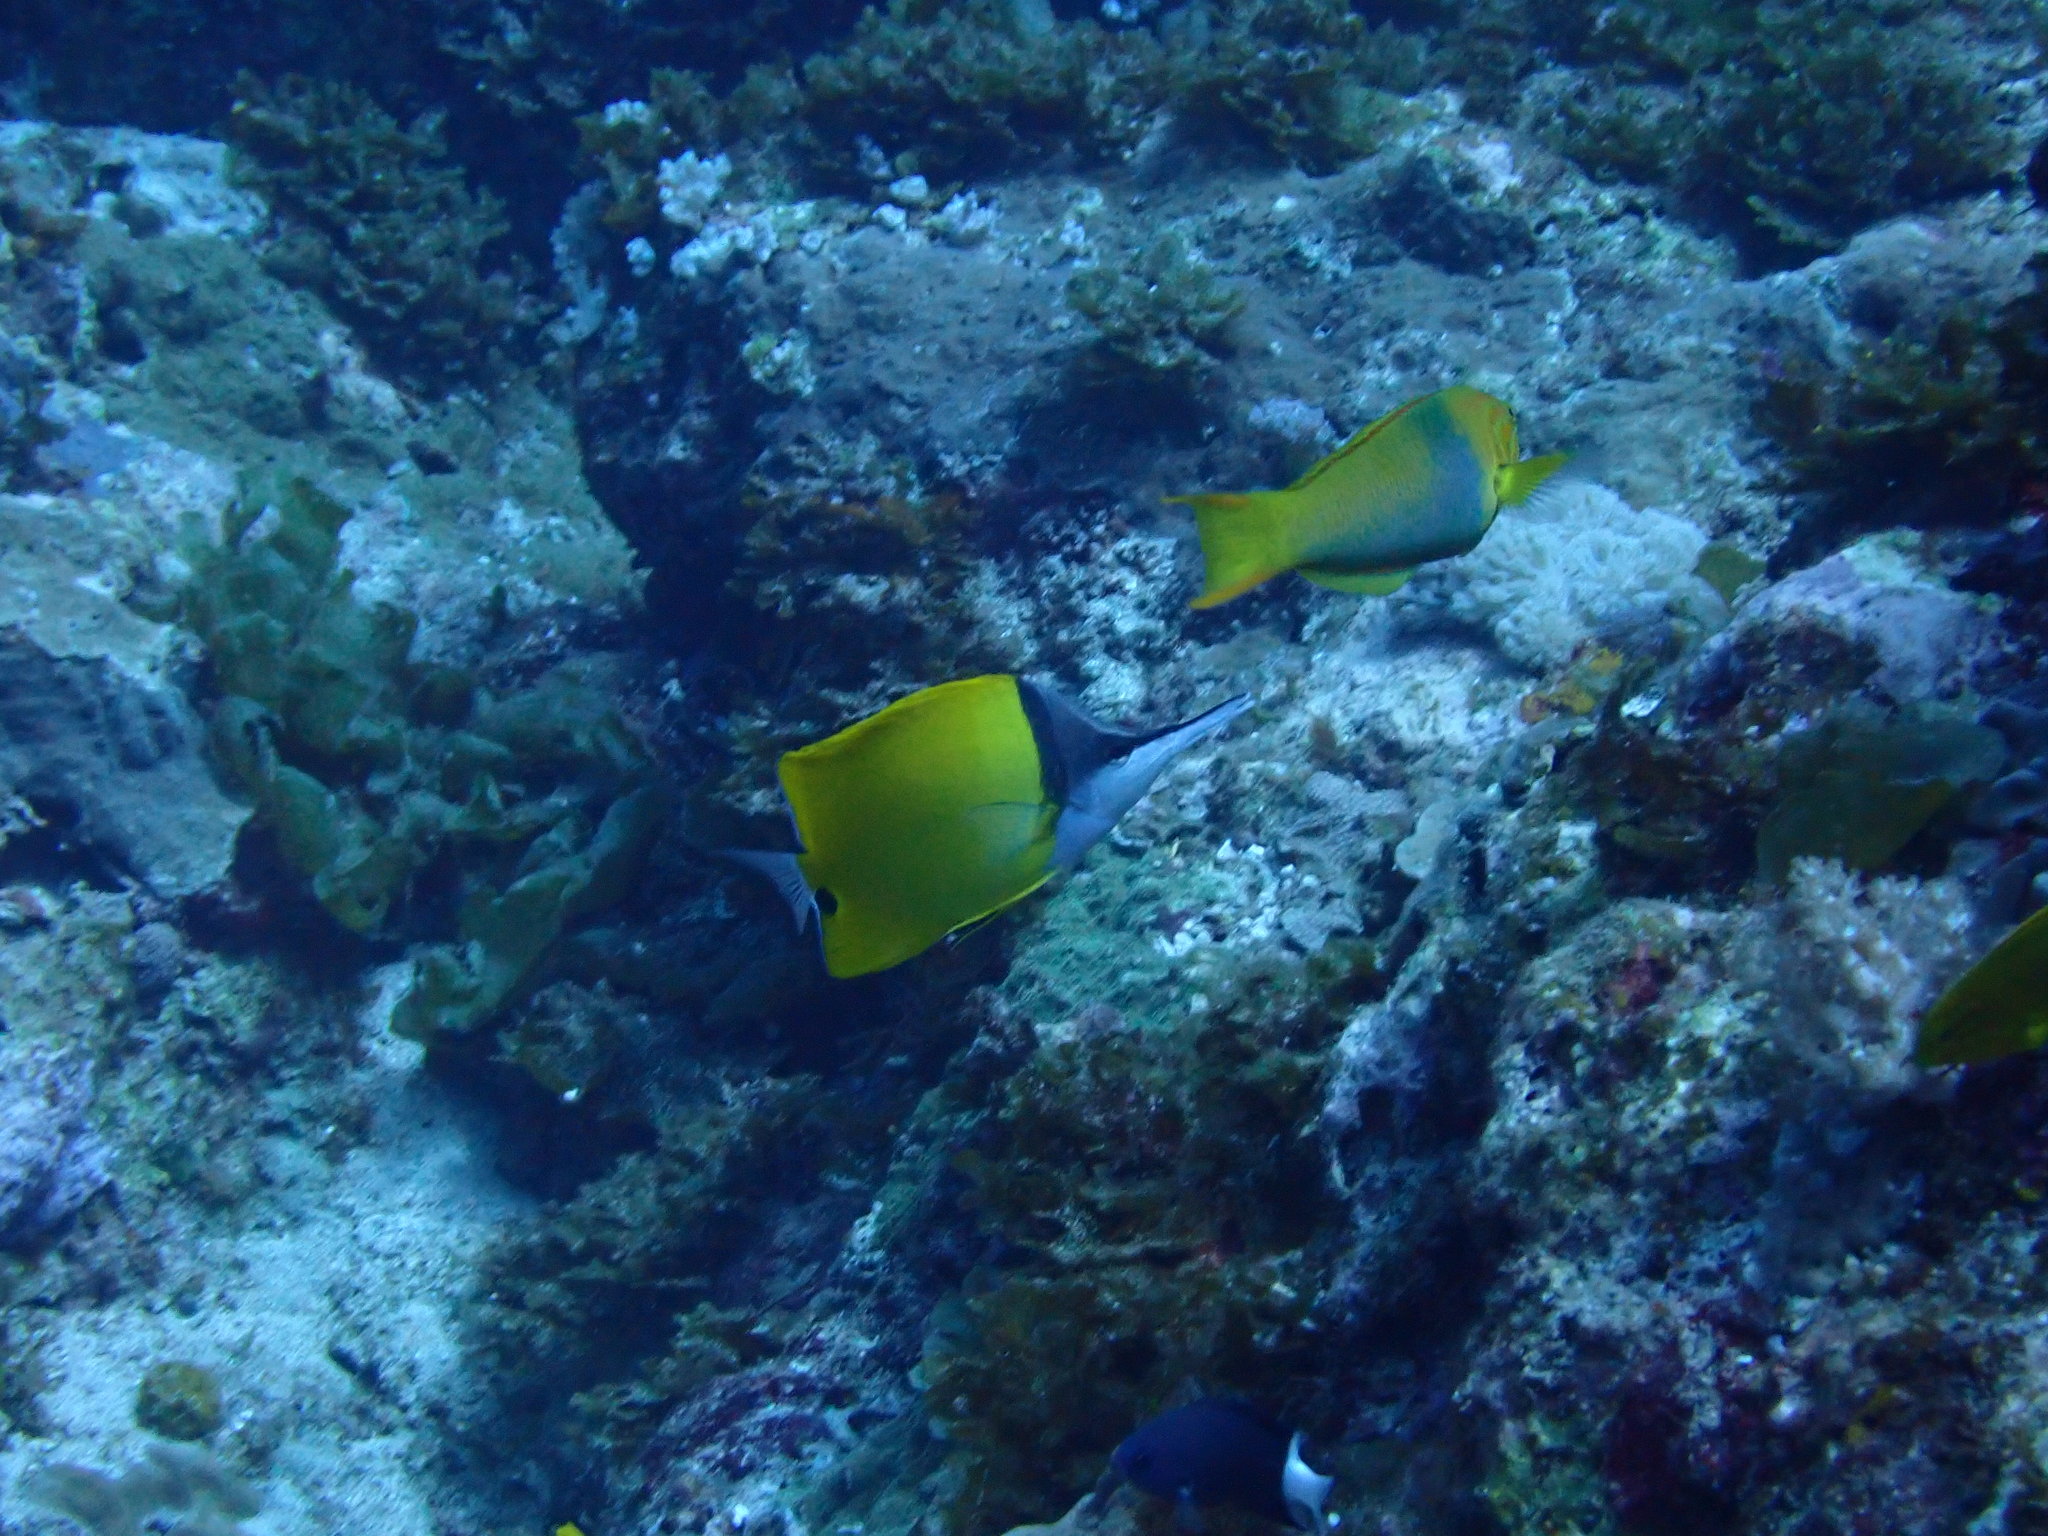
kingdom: Animalia
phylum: Chordata
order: Perciformes
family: Chaetodontidae
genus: Forcipiger
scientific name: Forcipiger flavissimus
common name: Forcepsfish
